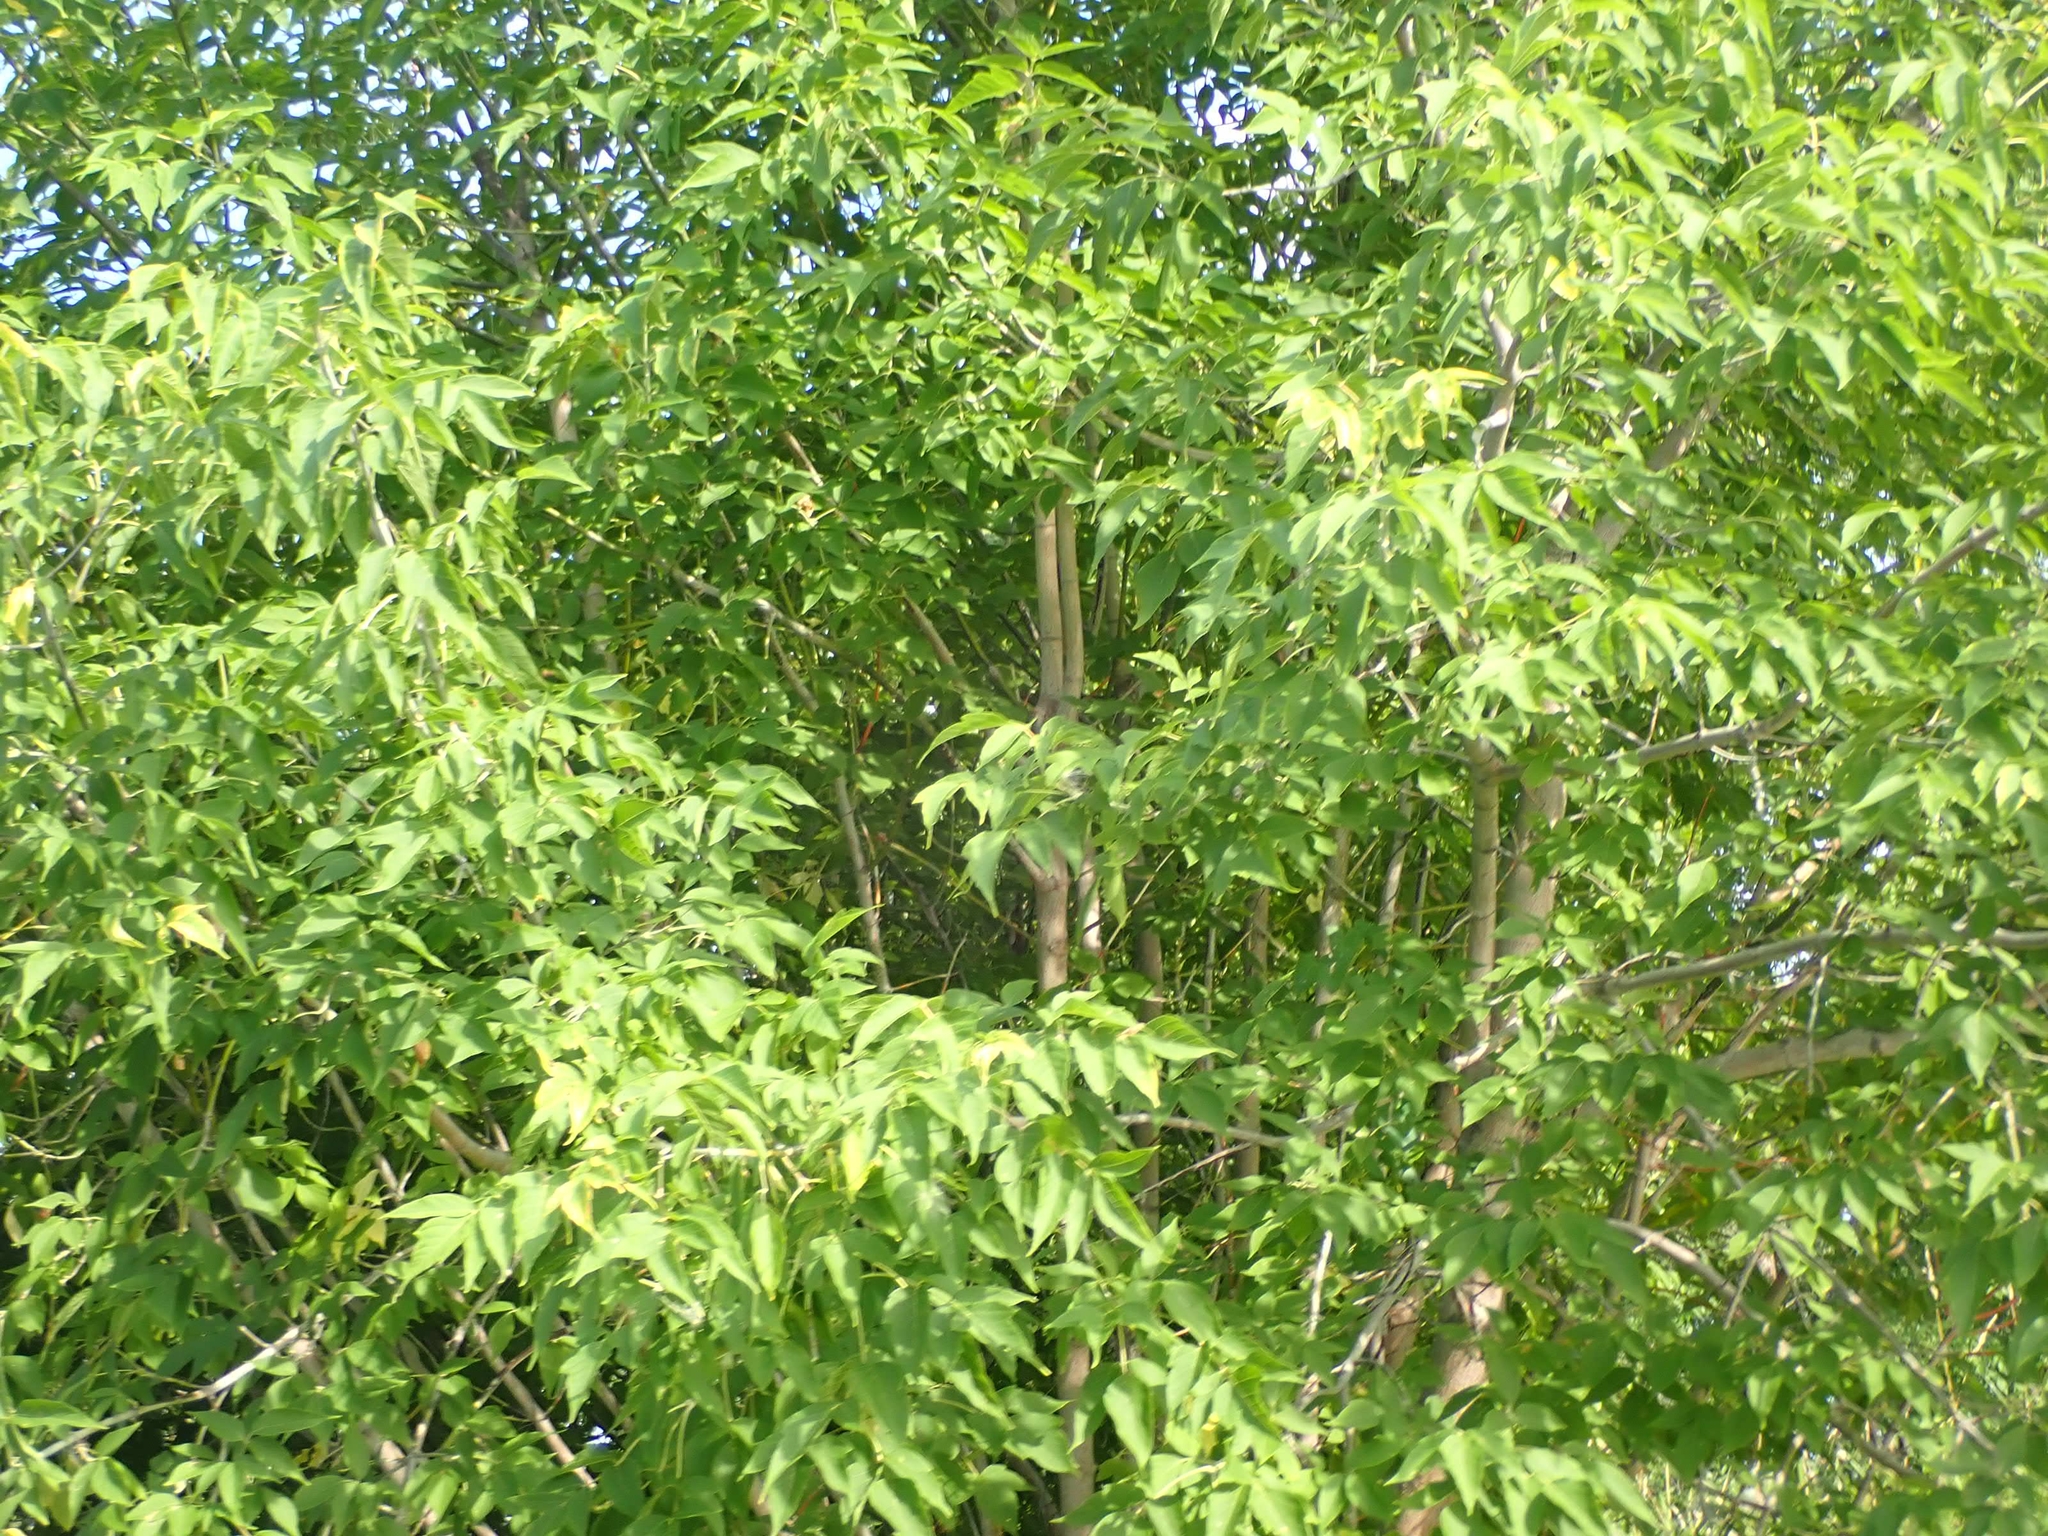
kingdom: Plantae
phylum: Tracheophyta
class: Magnoliopsida
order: Sapindales
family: Sapindaceae
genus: Acer
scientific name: Acer negundo
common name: Ashleaf maple
